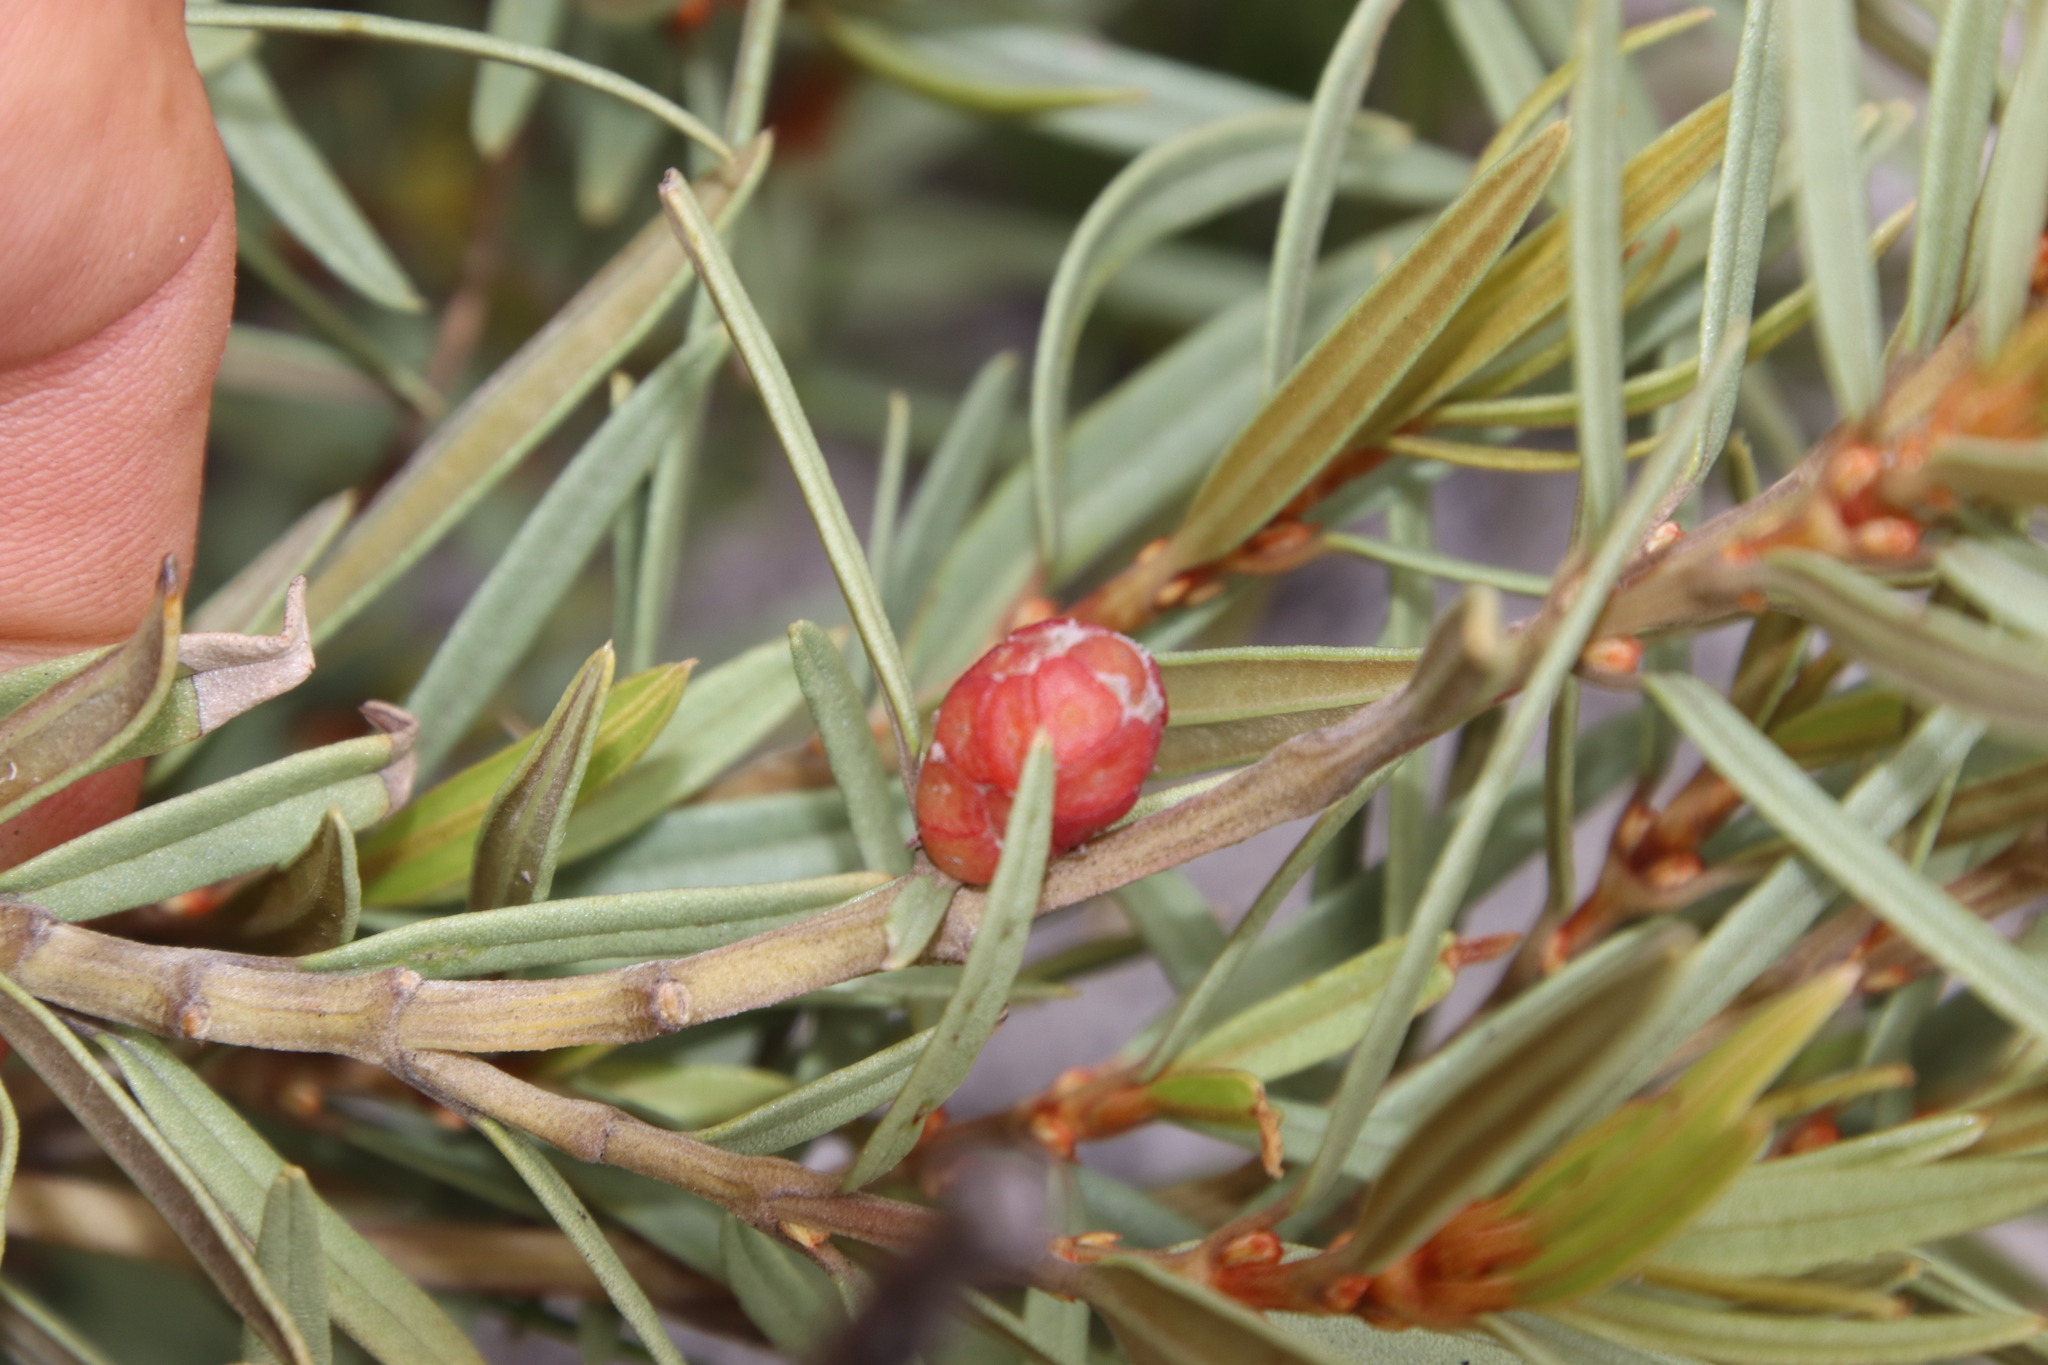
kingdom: Plantae
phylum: Tracheophyta
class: Magnoliopsida
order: Cornales
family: Grubbiaceae
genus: Grubbia
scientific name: Grubbia tomentosa
